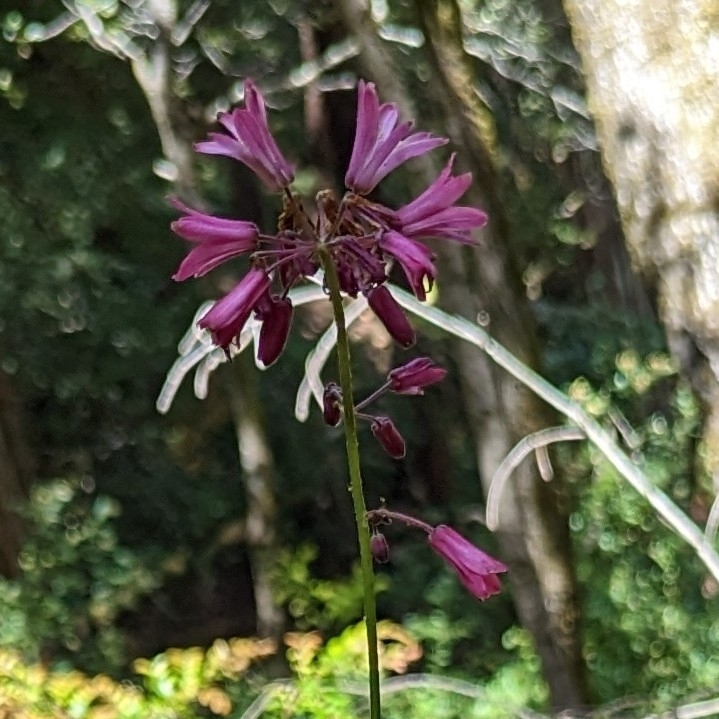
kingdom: Plantae
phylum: Tracheophyta
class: Liliopsida
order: Liliales
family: Liliaceae
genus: Clintonia
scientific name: Clintonia andrewsiana
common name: Red clintonia
